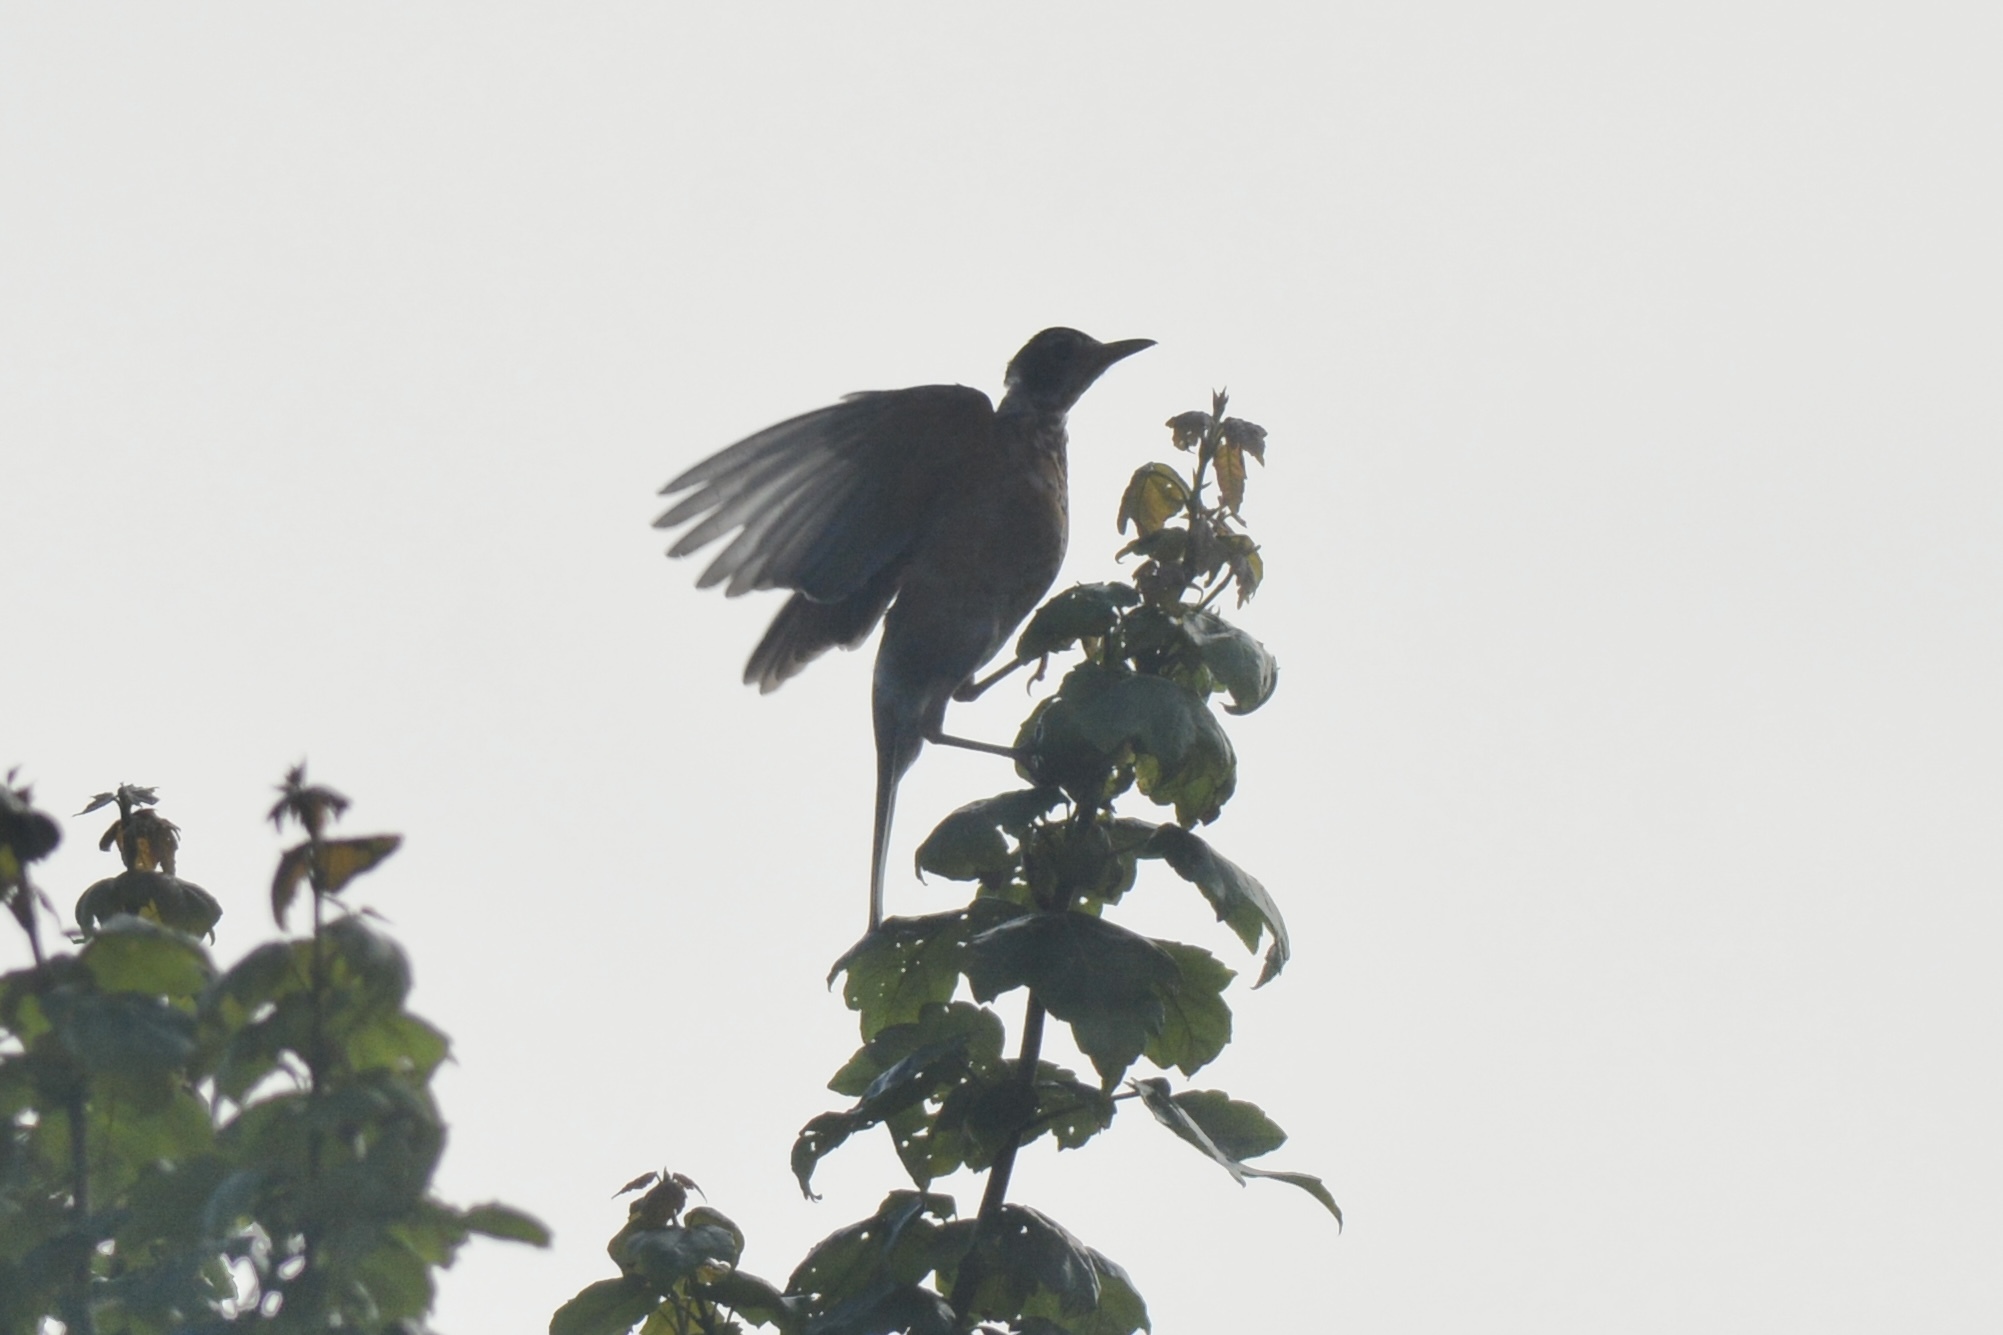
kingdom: Animalia
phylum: Chordata
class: Aves
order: Passeriformes
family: Turdidae
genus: Turdus
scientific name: Turdus migratorius
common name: American robin
